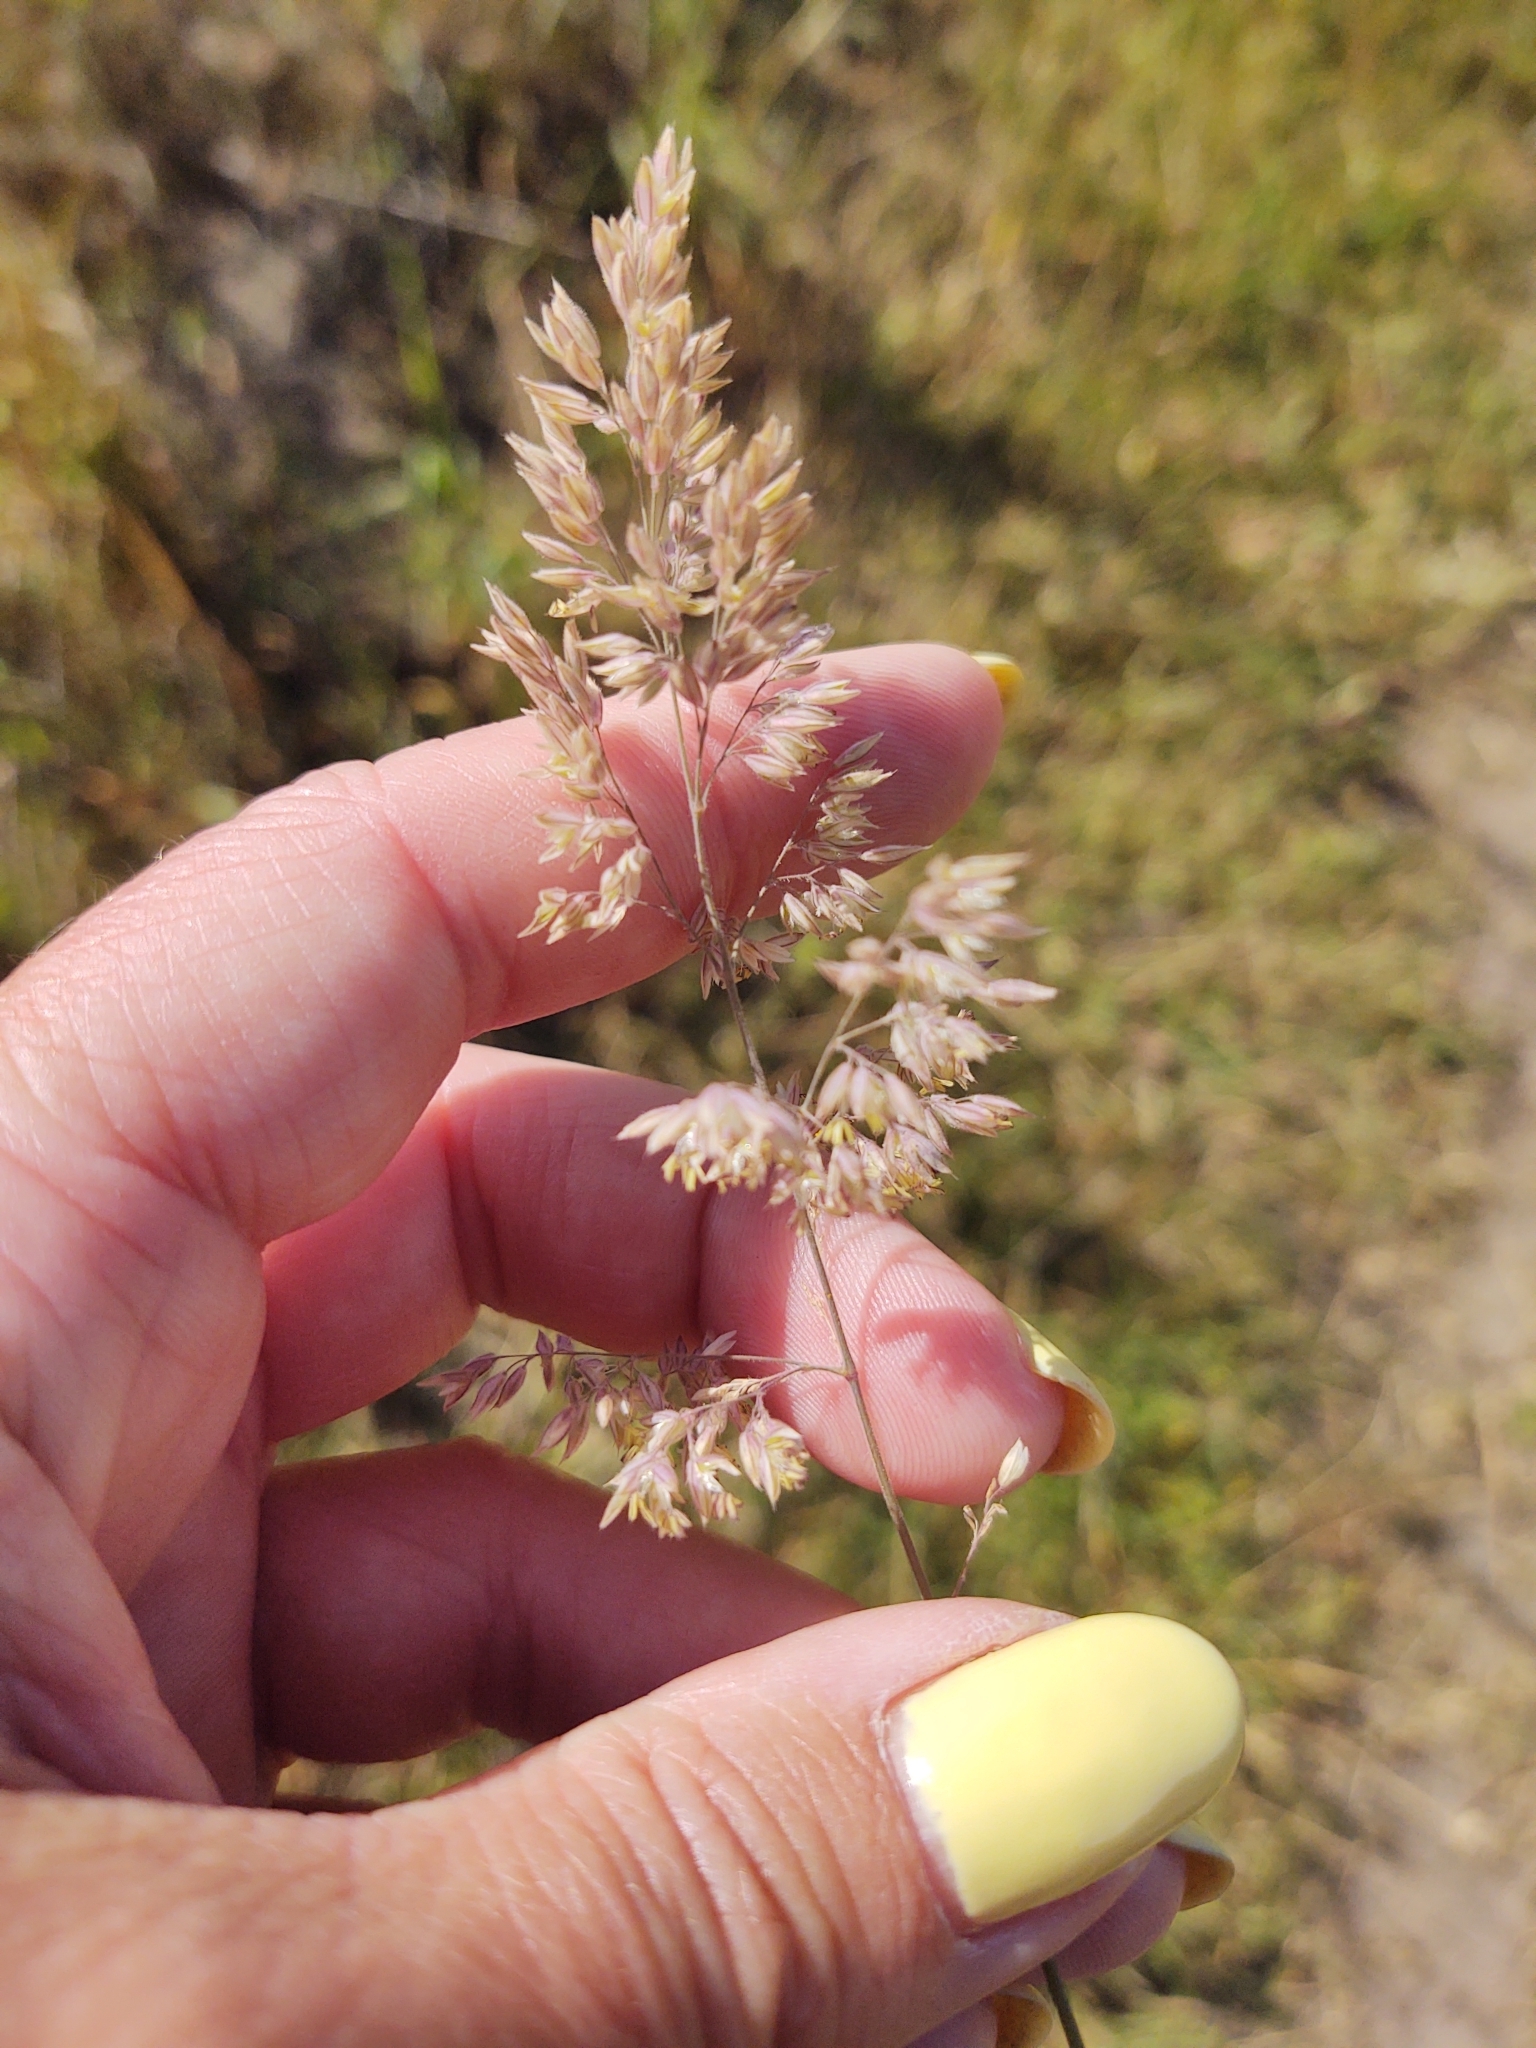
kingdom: Plantae
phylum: Tracheophyta
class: Liliopsida
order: Poales
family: Poaceae
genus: Holcus
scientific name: Holcus lanatus
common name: Yorkshire-fog
